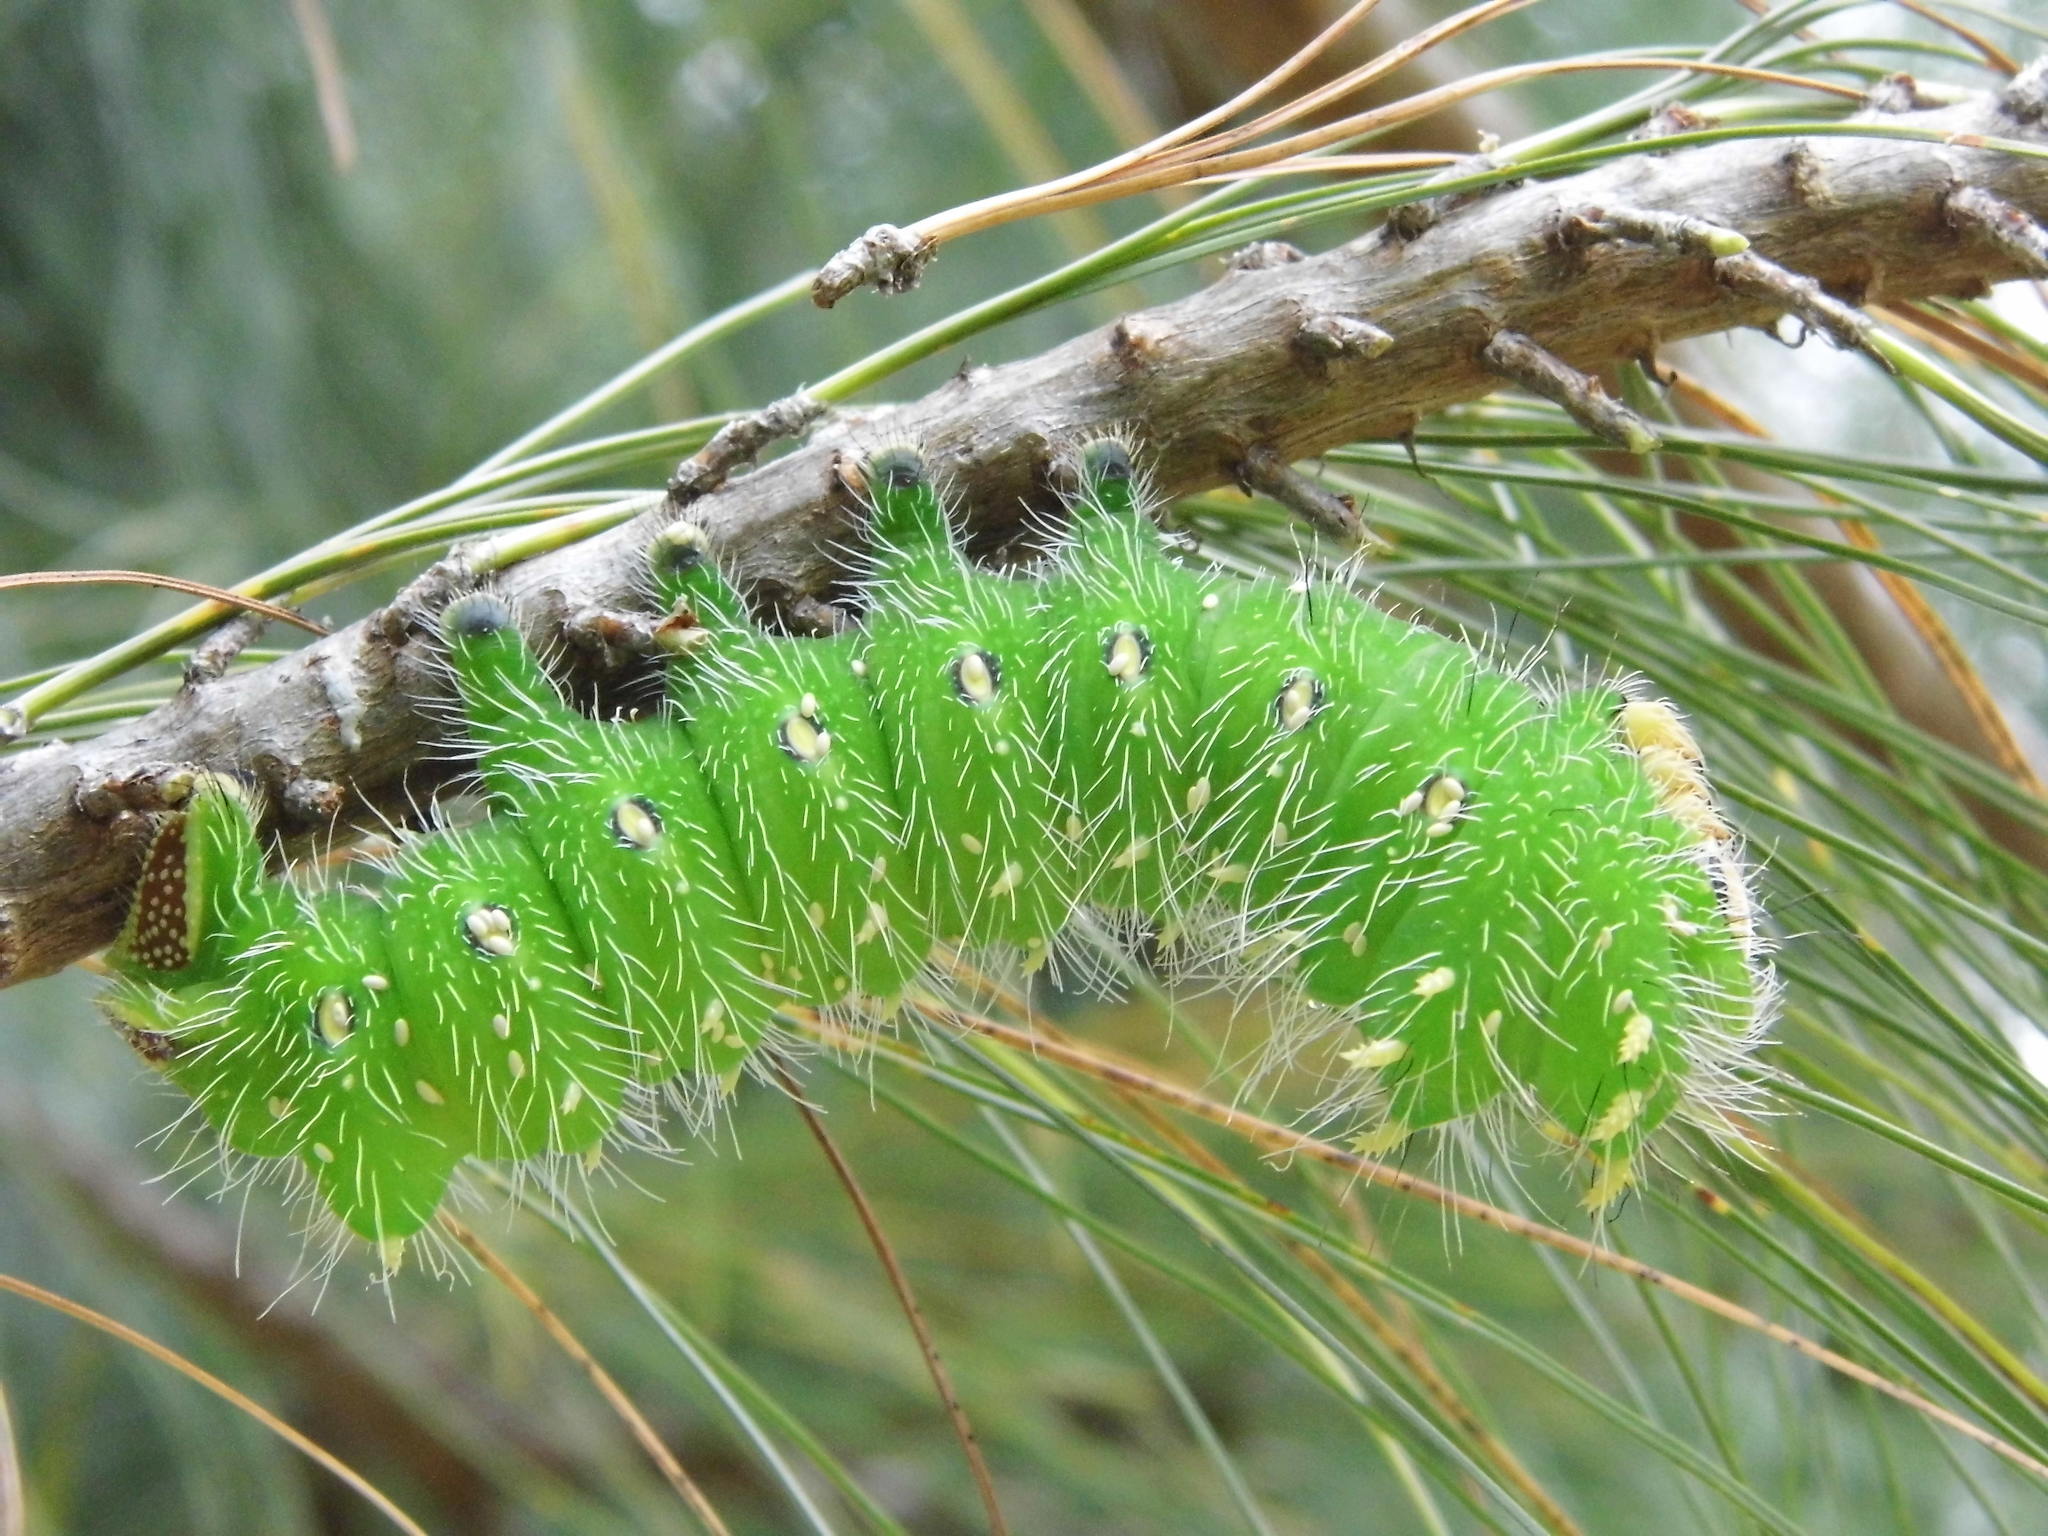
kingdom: Animalia
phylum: Arthropoda
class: Insecta
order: Lepidoptera
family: Saturniidae
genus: Eacles
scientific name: Eacles imperialis
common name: Imperial moth
